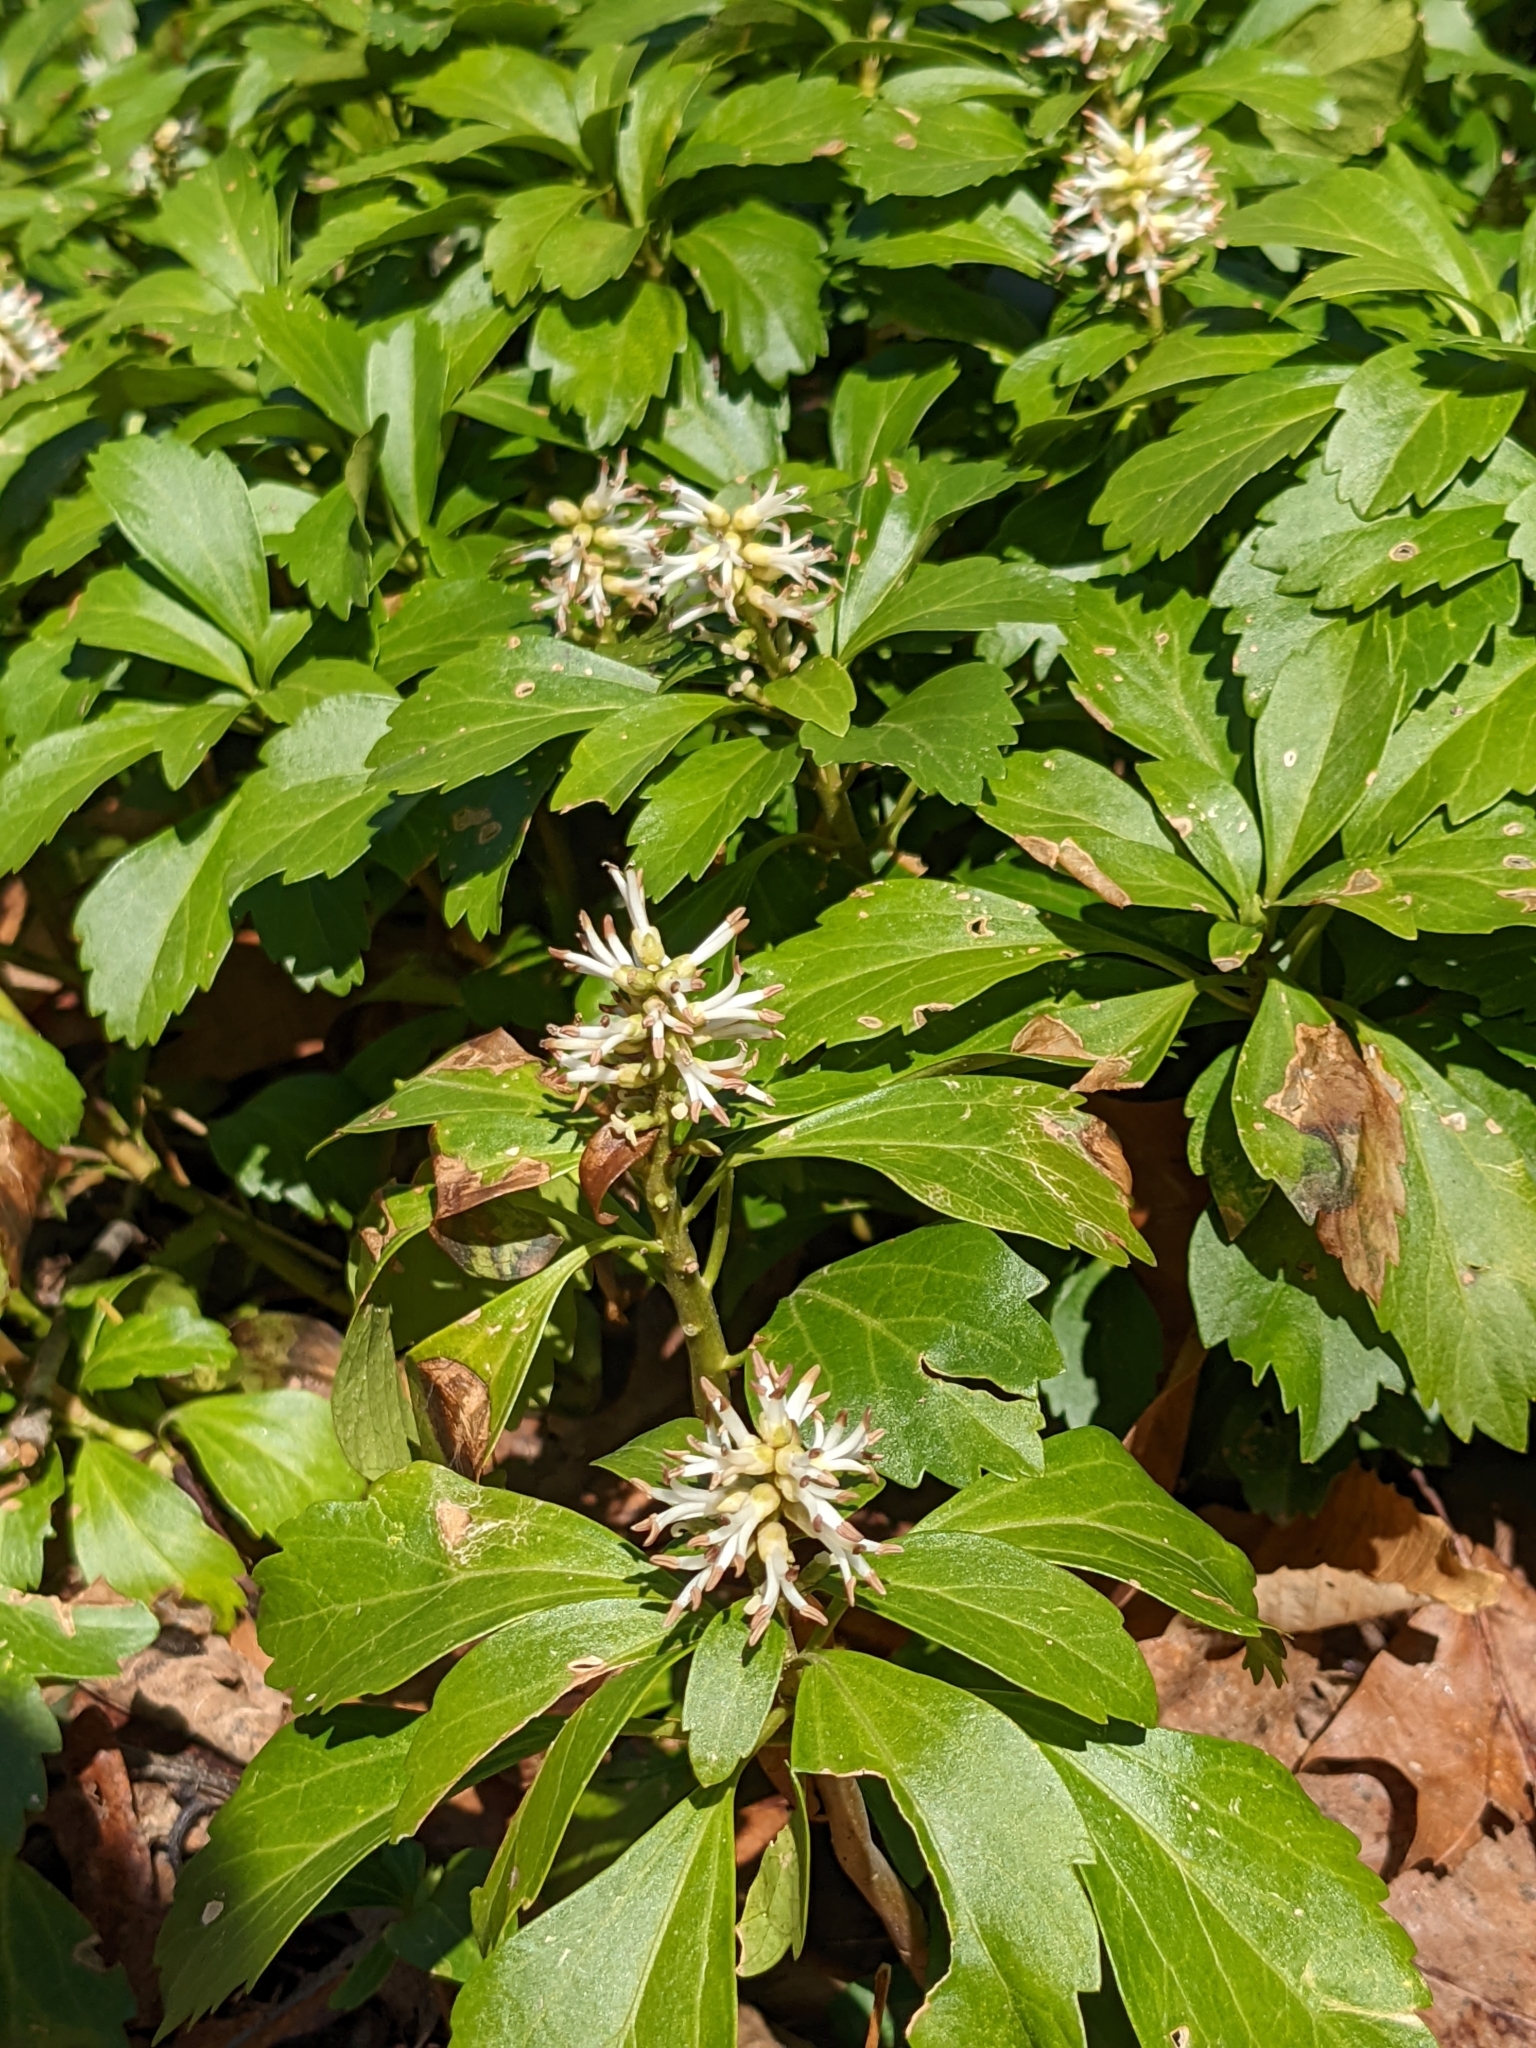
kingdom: Plantae
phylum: Tracheophyta
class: Magnoliopsida
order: Buxales
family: Buxaceae
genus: Pachysandra
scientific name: Pachysandra terminalis
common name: Japanese pachysandra
